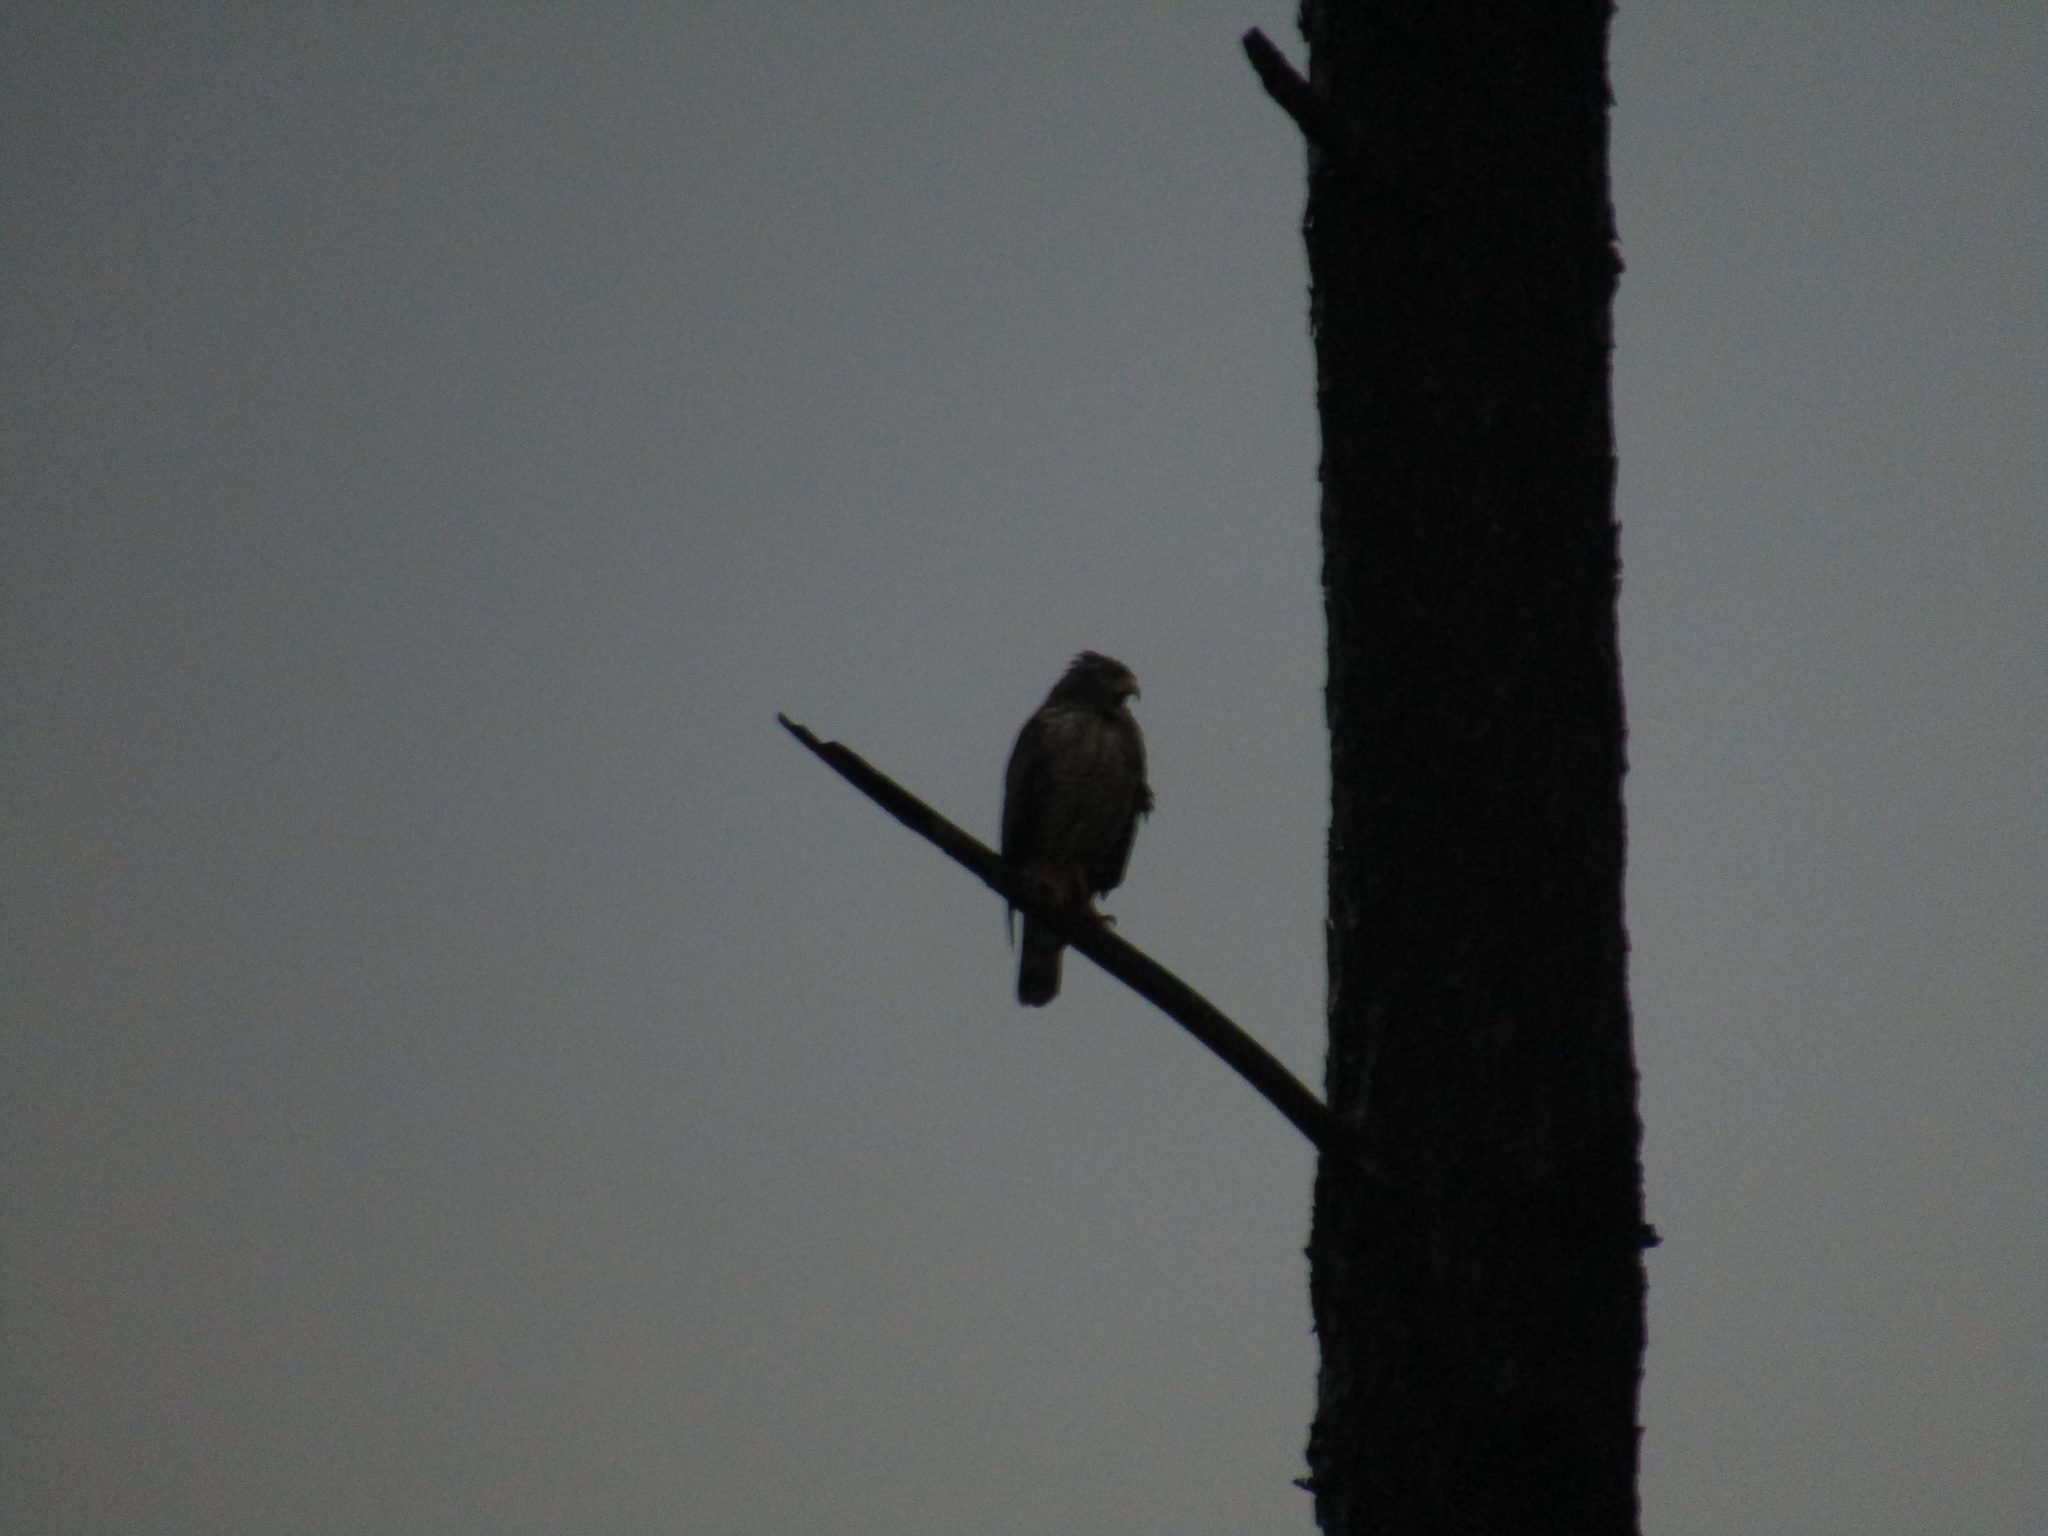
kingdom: Animalia
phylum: Chordata
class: Aves
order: Accipitriformes
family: Accipitridae
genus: Rupornis
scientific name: Rupornis magnirostris
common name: Roadside hawk
